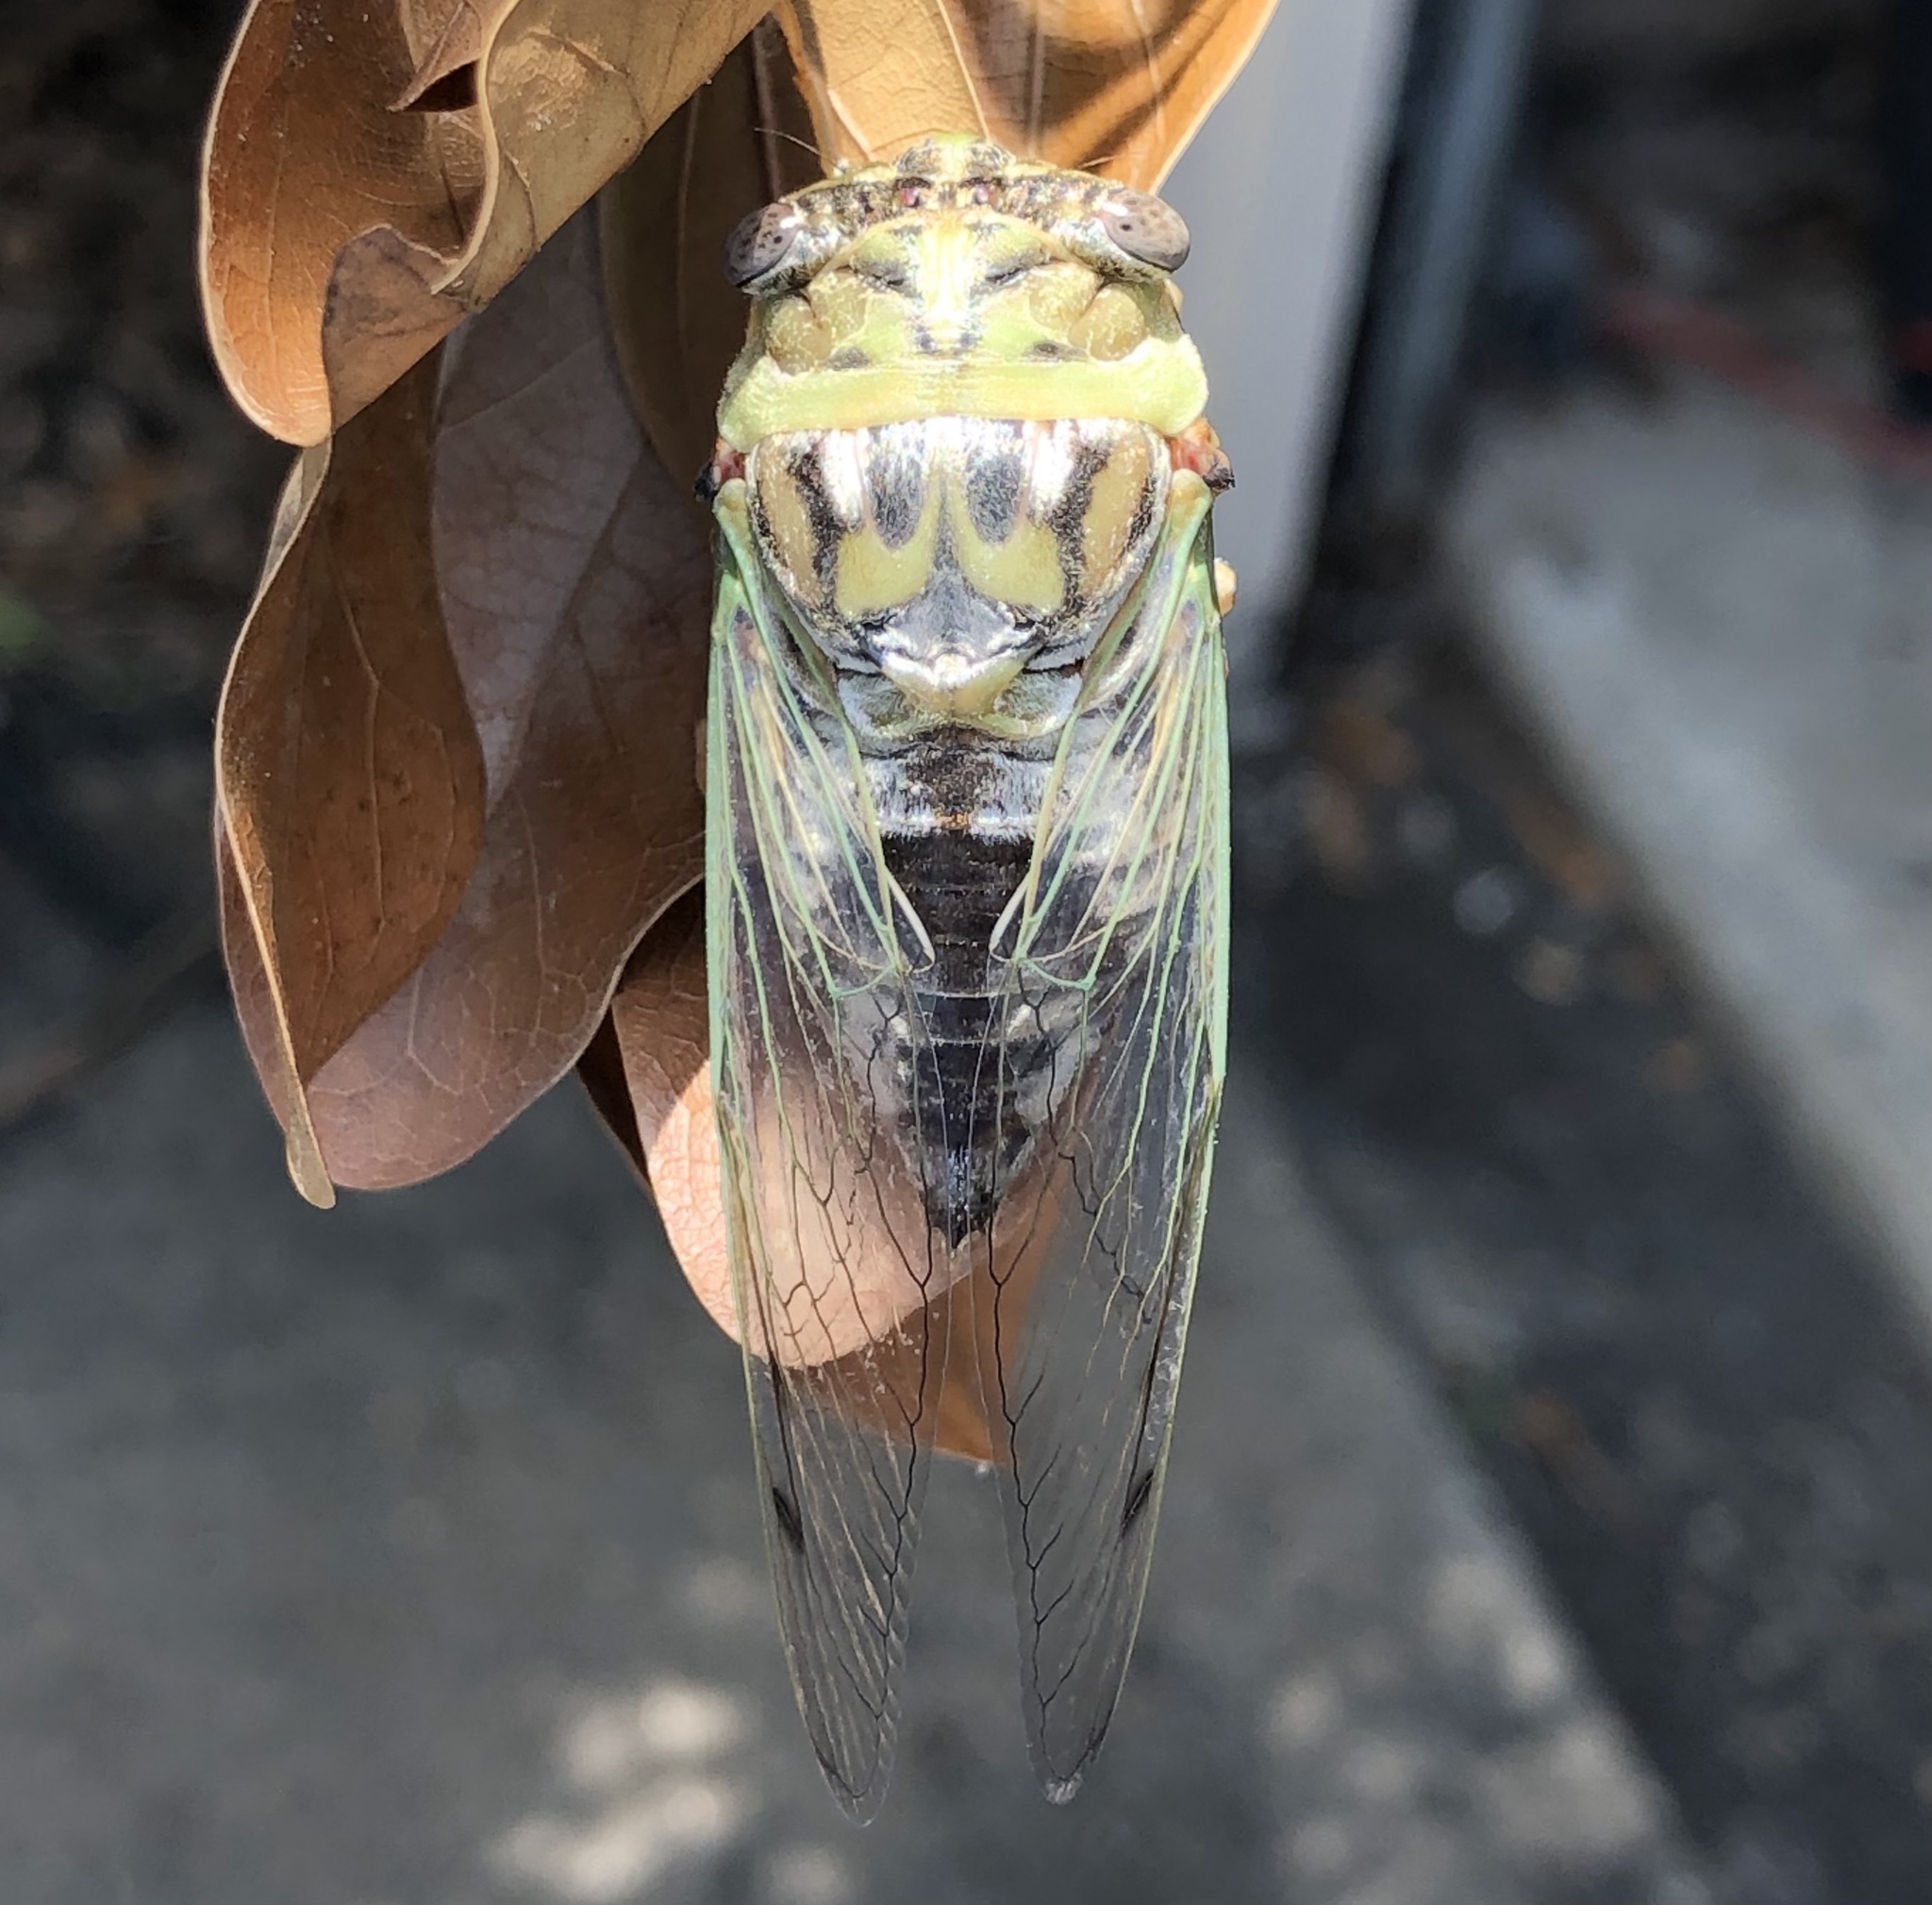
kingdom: Animalia
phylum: Arthropoda
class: Insecta
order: Hemiptera
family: Cicadidae
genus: Megatibicen
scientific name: Megatibicen resh
